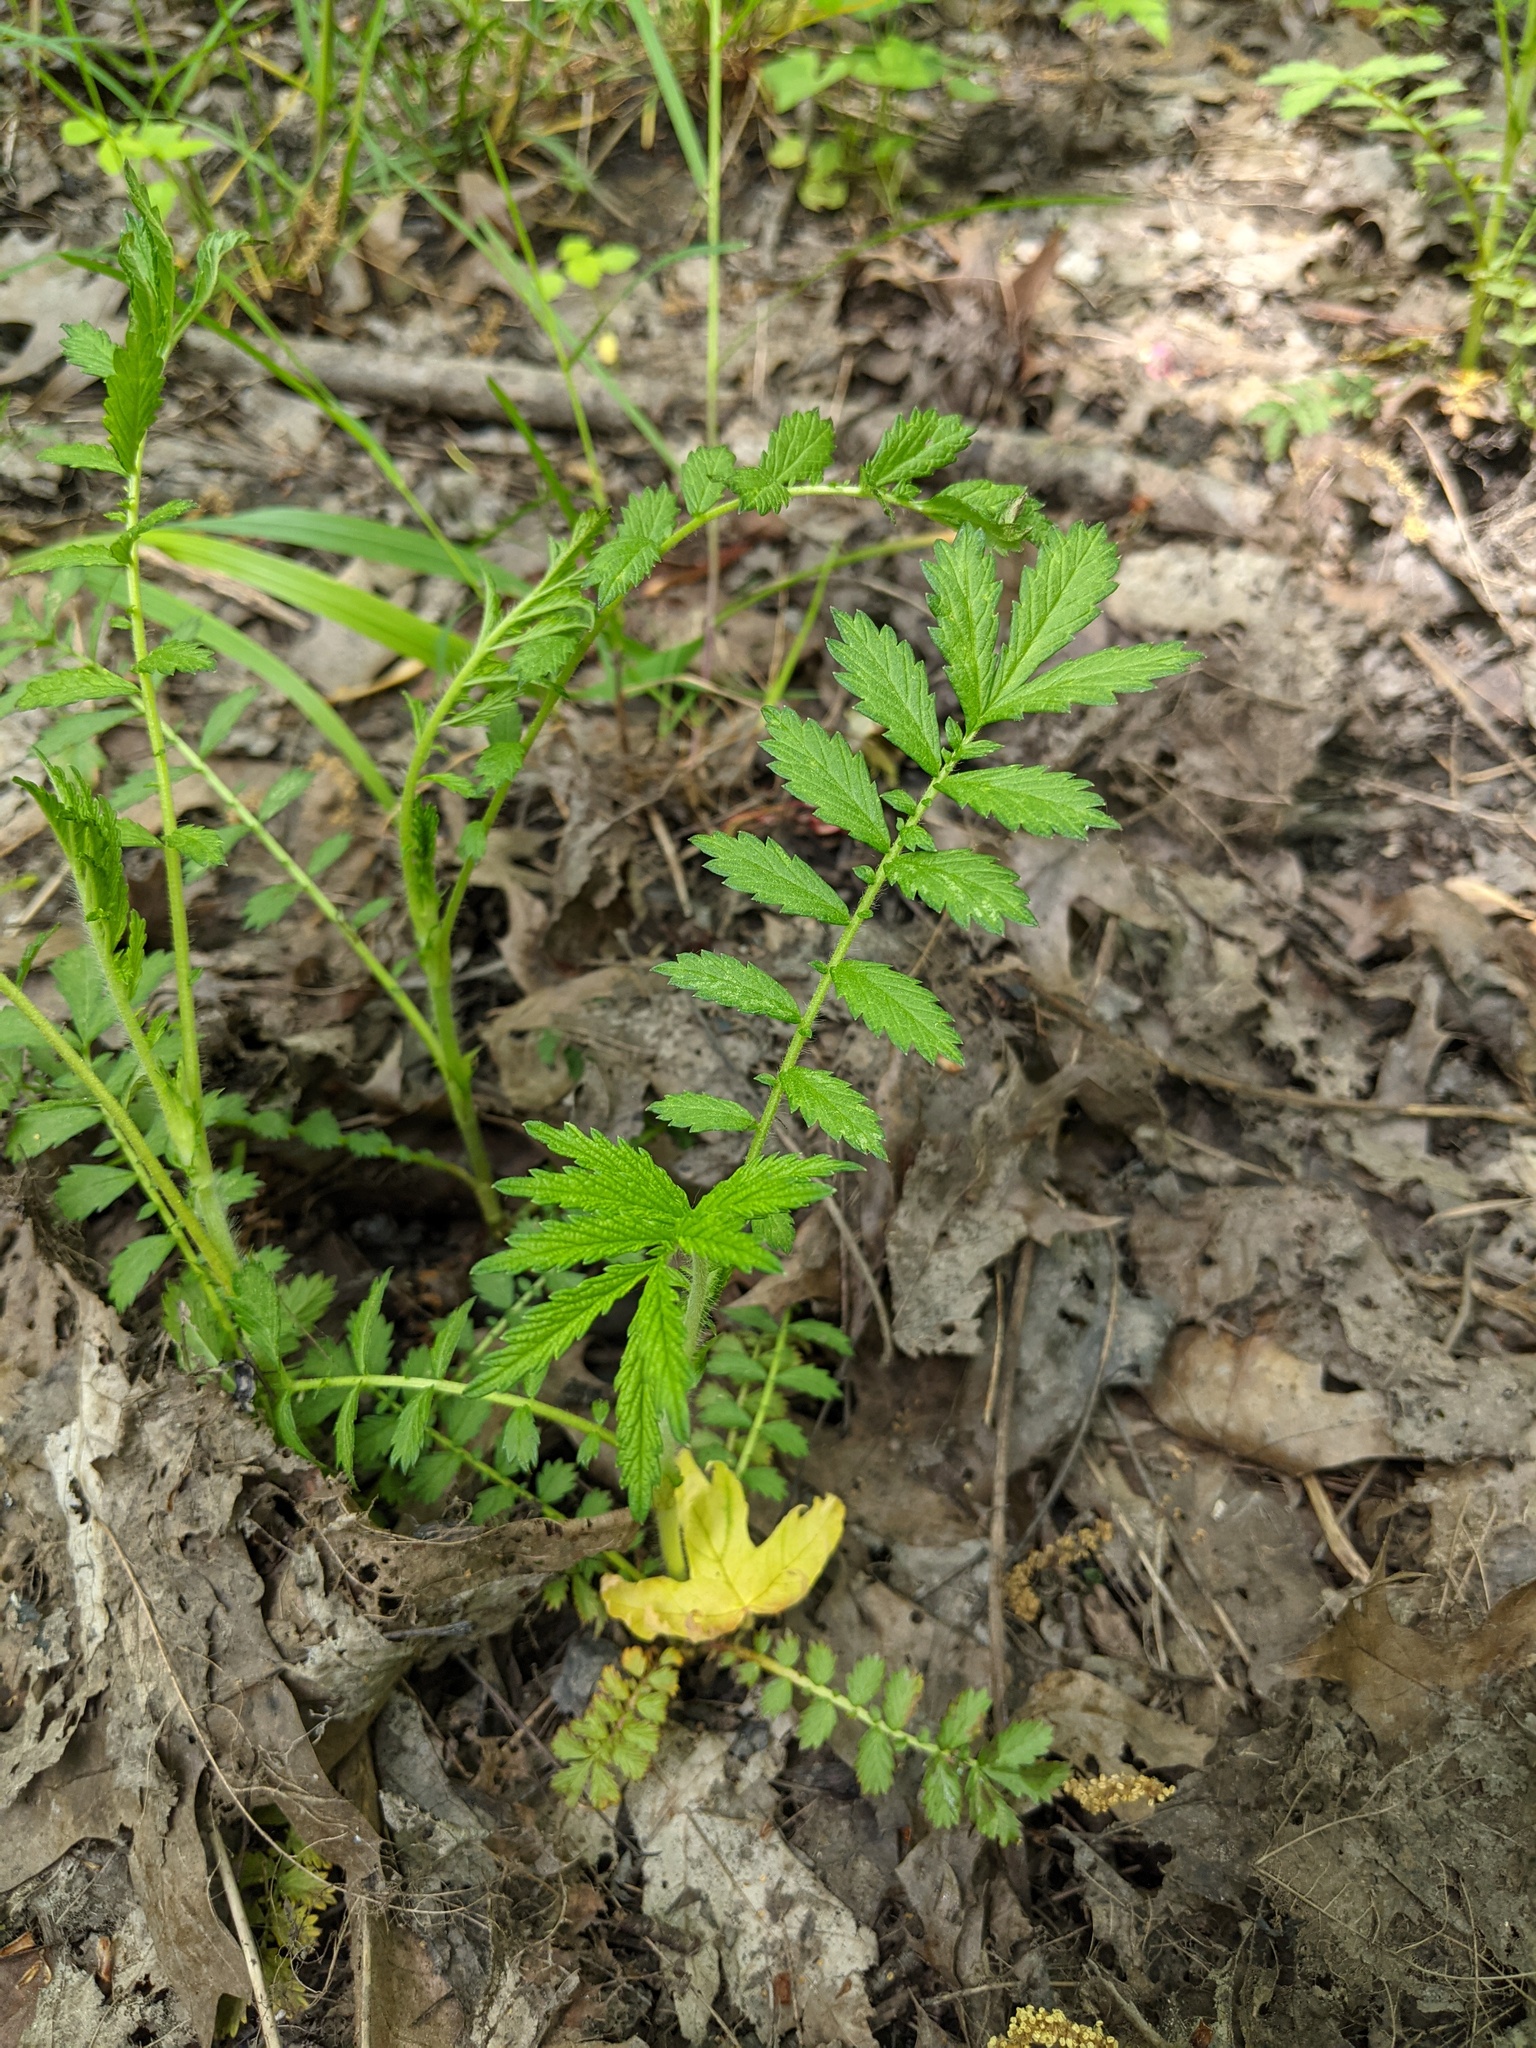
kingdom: Plantae
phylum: Tracheophyta
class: Magnoliopsida
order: Rosales
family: Rosaceae
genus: Agrimonia
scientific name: Agrimonia parviflora
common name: Harvest-lice
